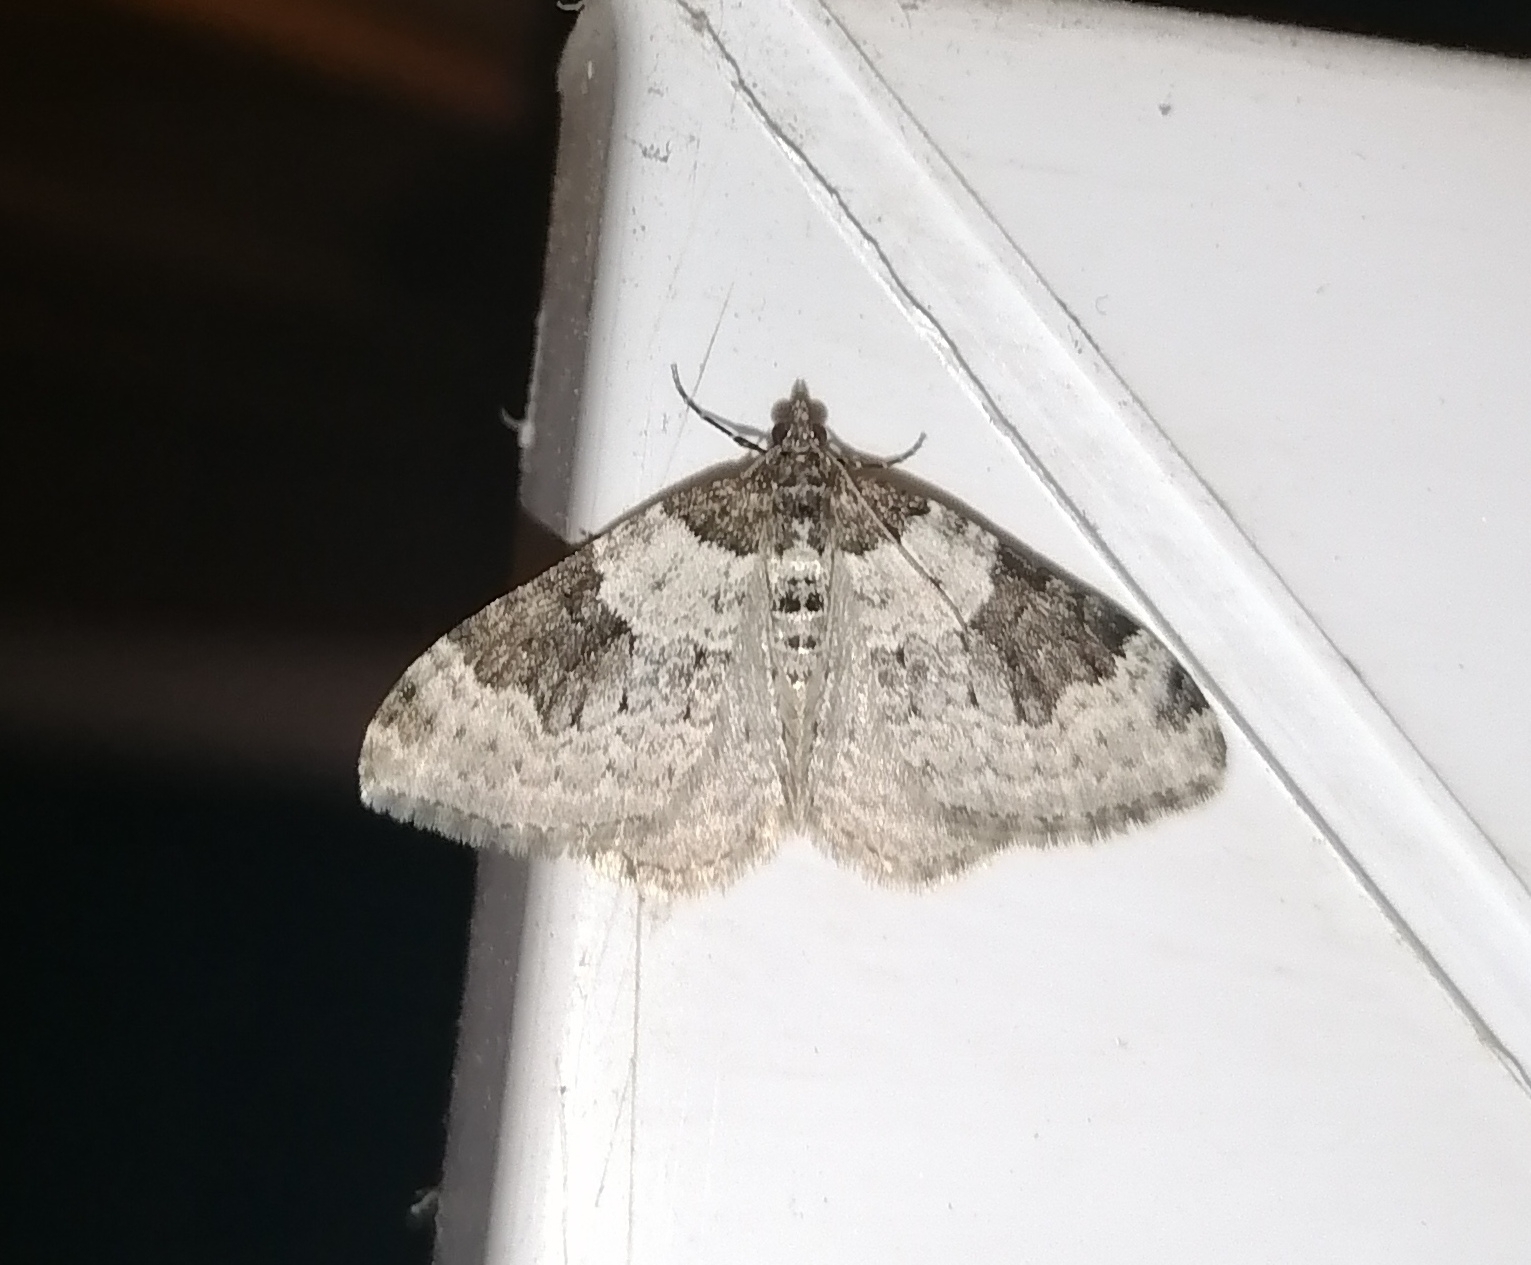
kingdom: Animalia
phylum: Arthropoda
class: Insecta
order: Lepidoptera
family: Geometridae
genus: Xanthorhoe
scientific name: Xanthorhoe fluctuata
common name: Garden carpet
